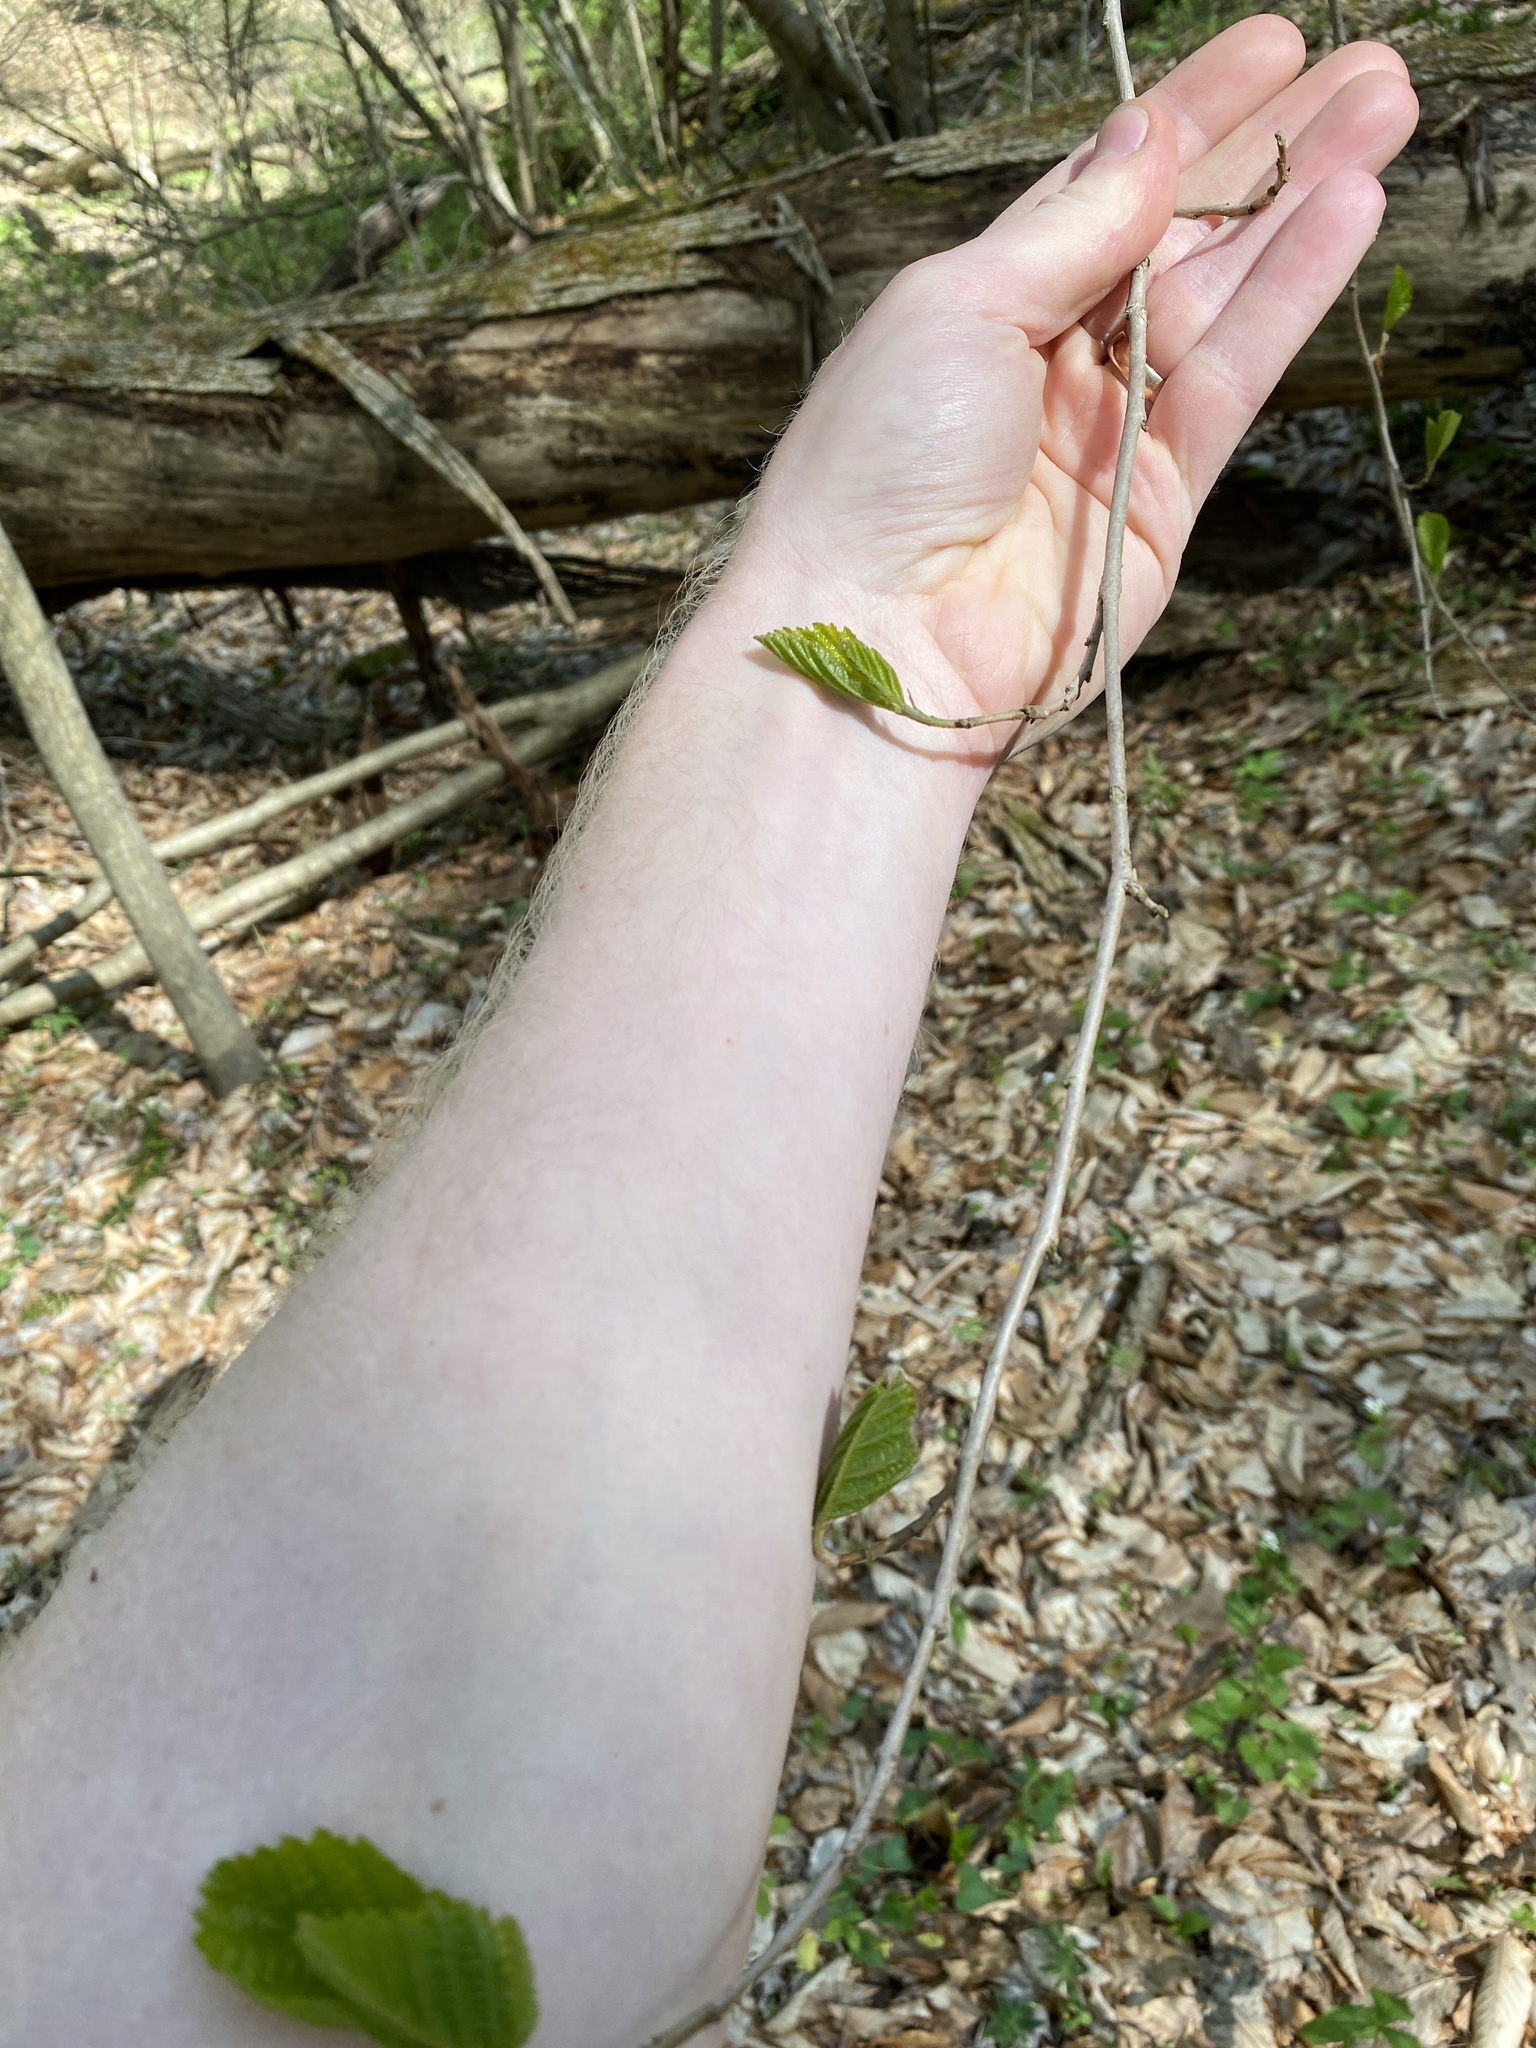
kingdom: Plantae
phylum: Tracheophyta
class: Magnoliopsida
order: Saxifragales
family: Hamamelidaceae
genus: Hamamelis
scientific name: Hamamelis virginiana
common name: Witch-hazel
